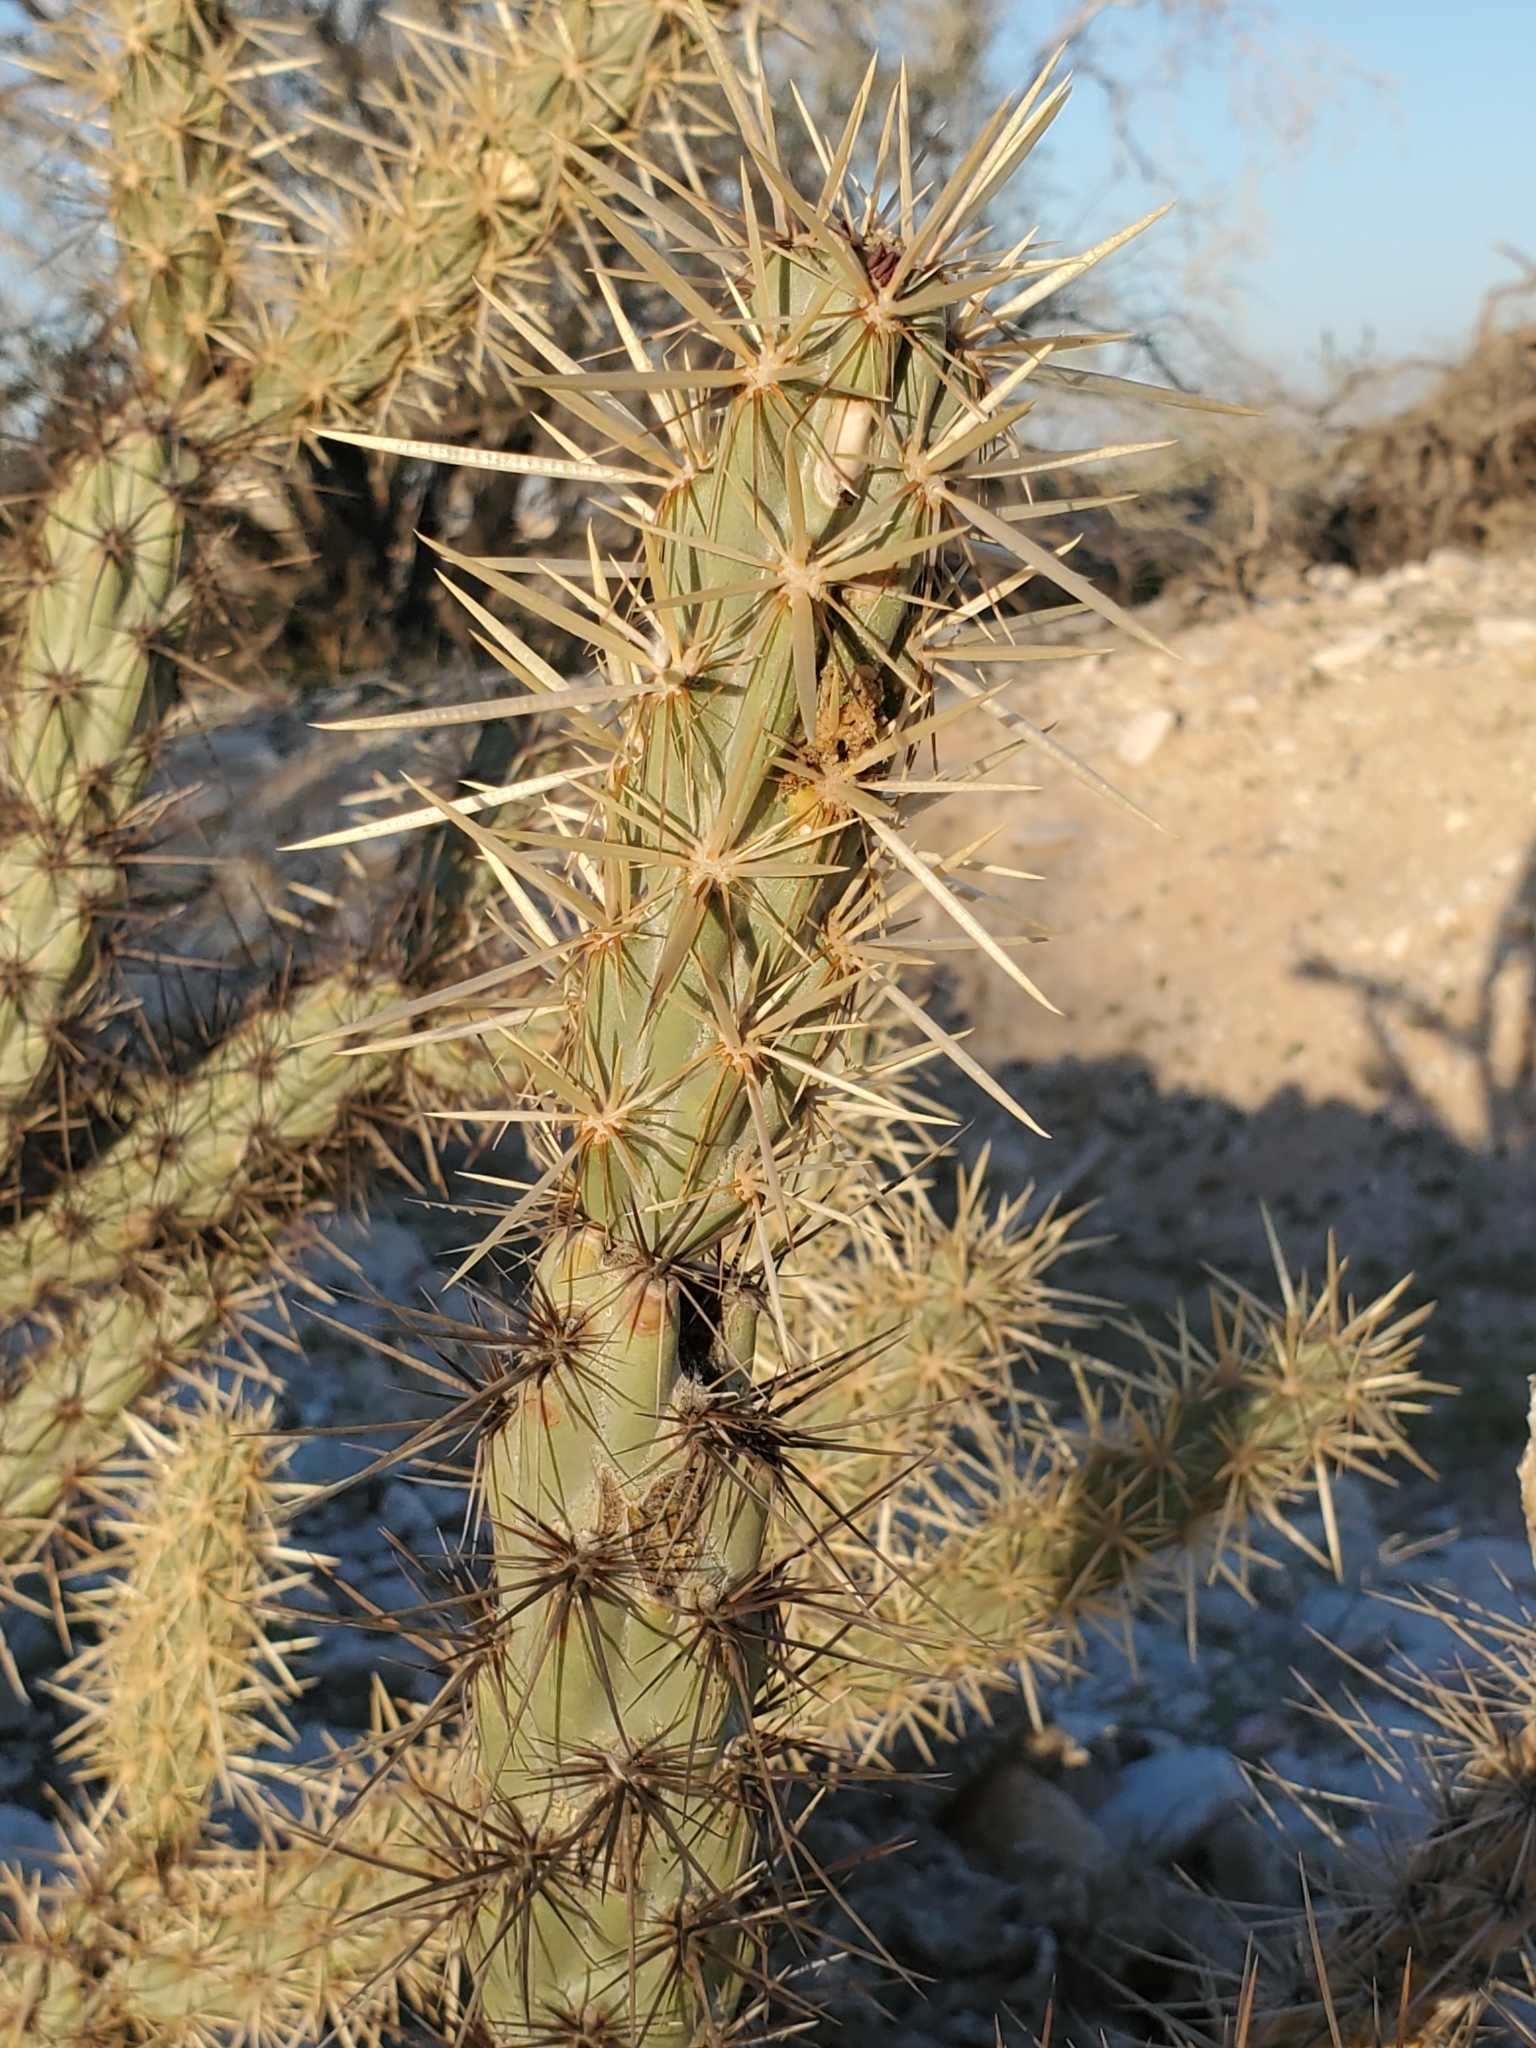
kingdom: Plantae
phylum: Tracheophyta
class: Magnoliopsida
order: Caryophyllales
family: Cactaceae
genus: Cylindropuntia
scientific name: Cylindropuntia acanthocarpa
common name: Buckhorn cholla
